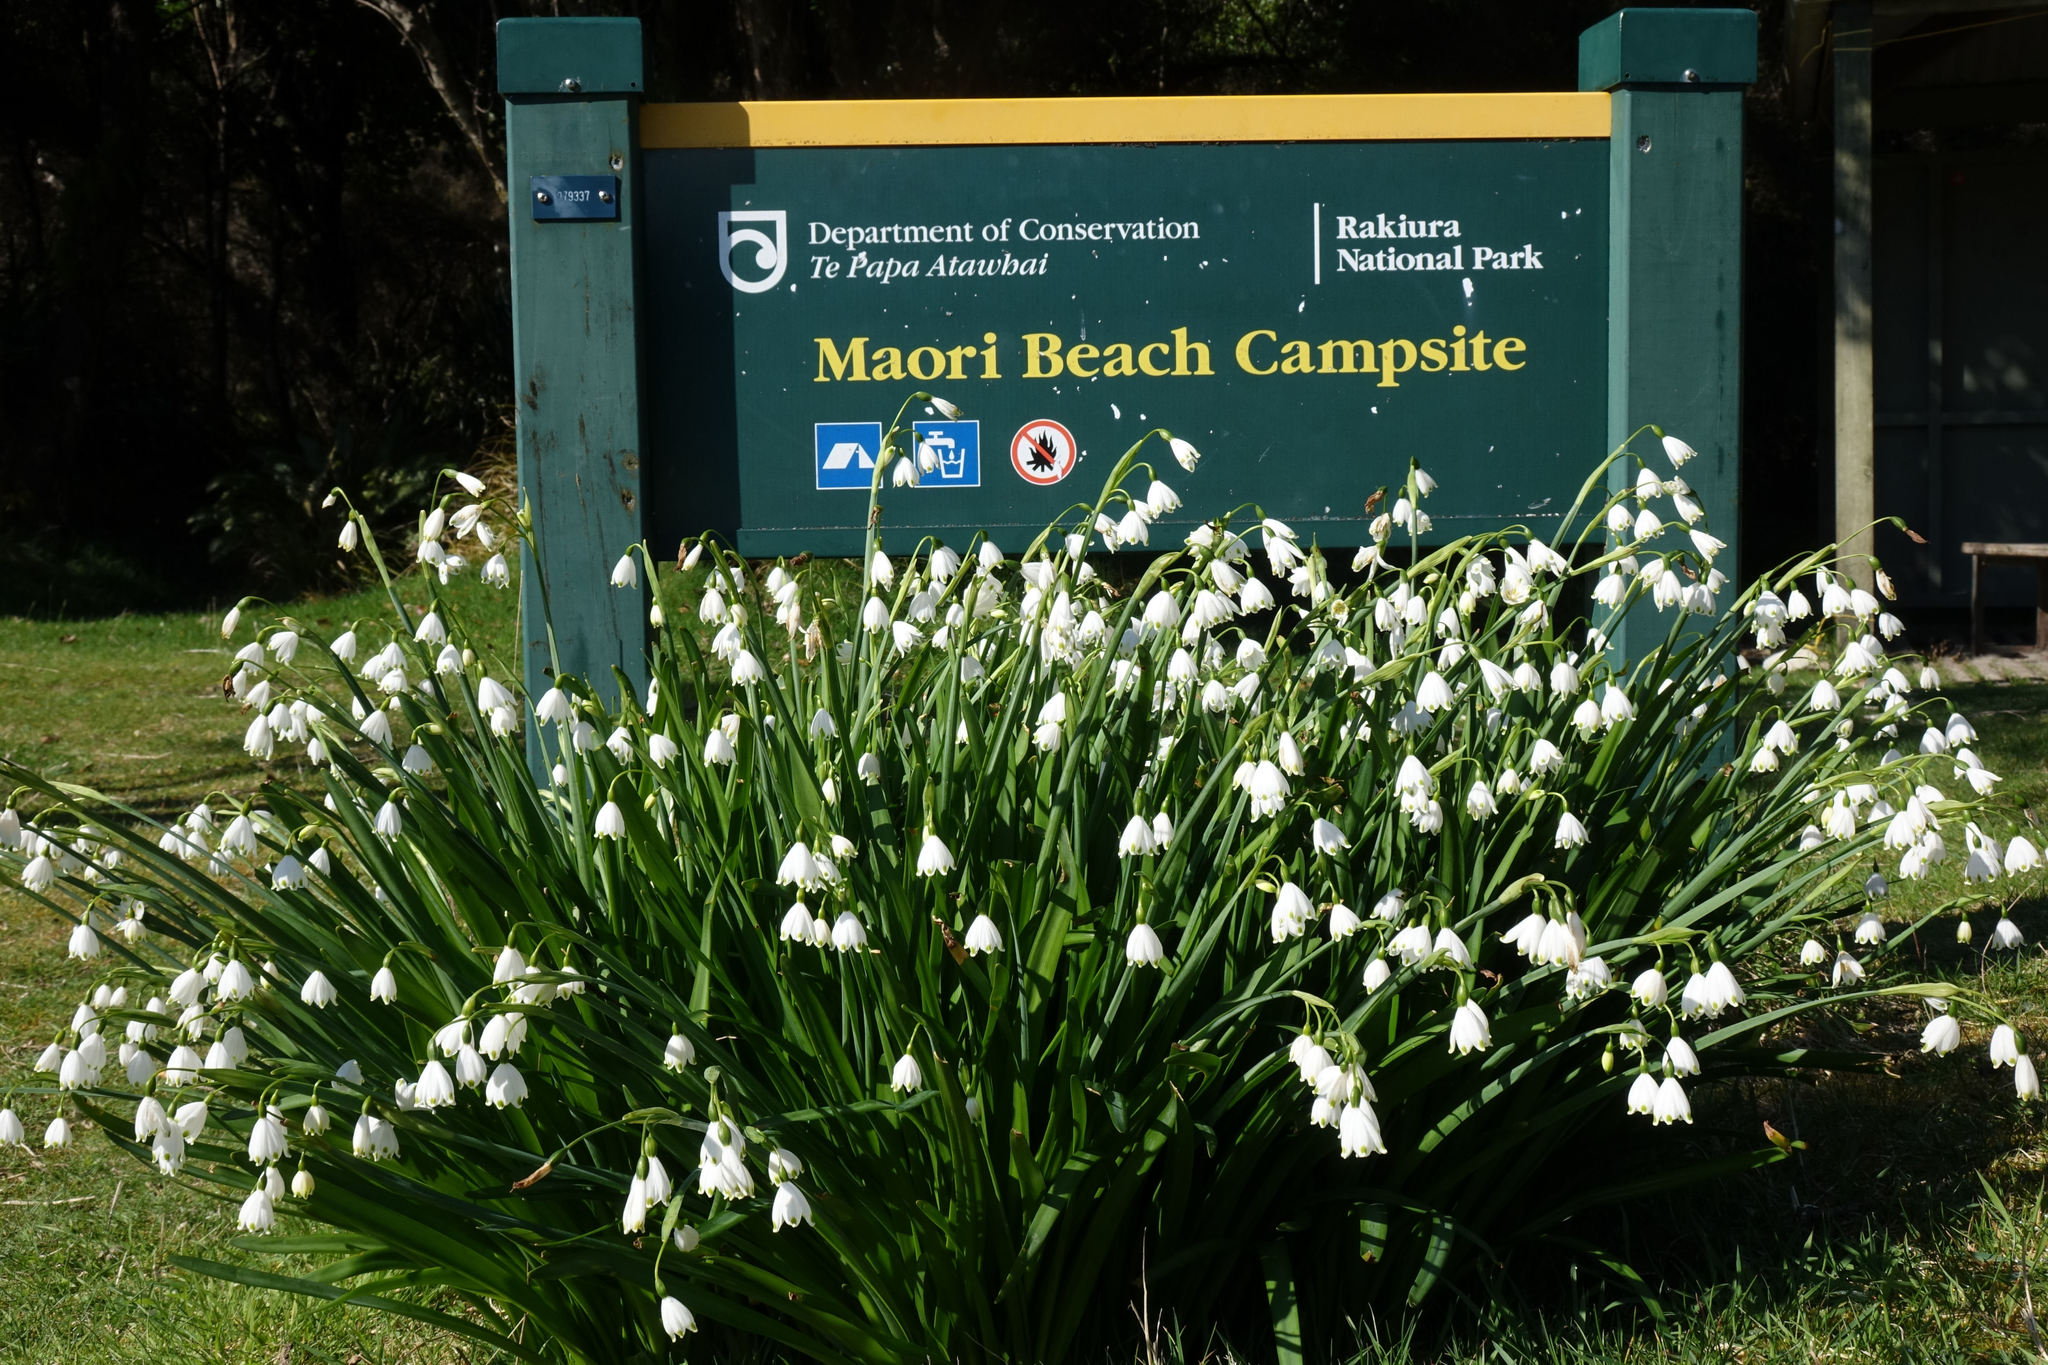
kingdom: Plantae
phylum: Tracheophyta
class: Liliopsida
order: Asparagales
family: Amaryllidaceae
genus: Leucojum
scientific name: Leucojum aestivum
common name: Summer snowflake
